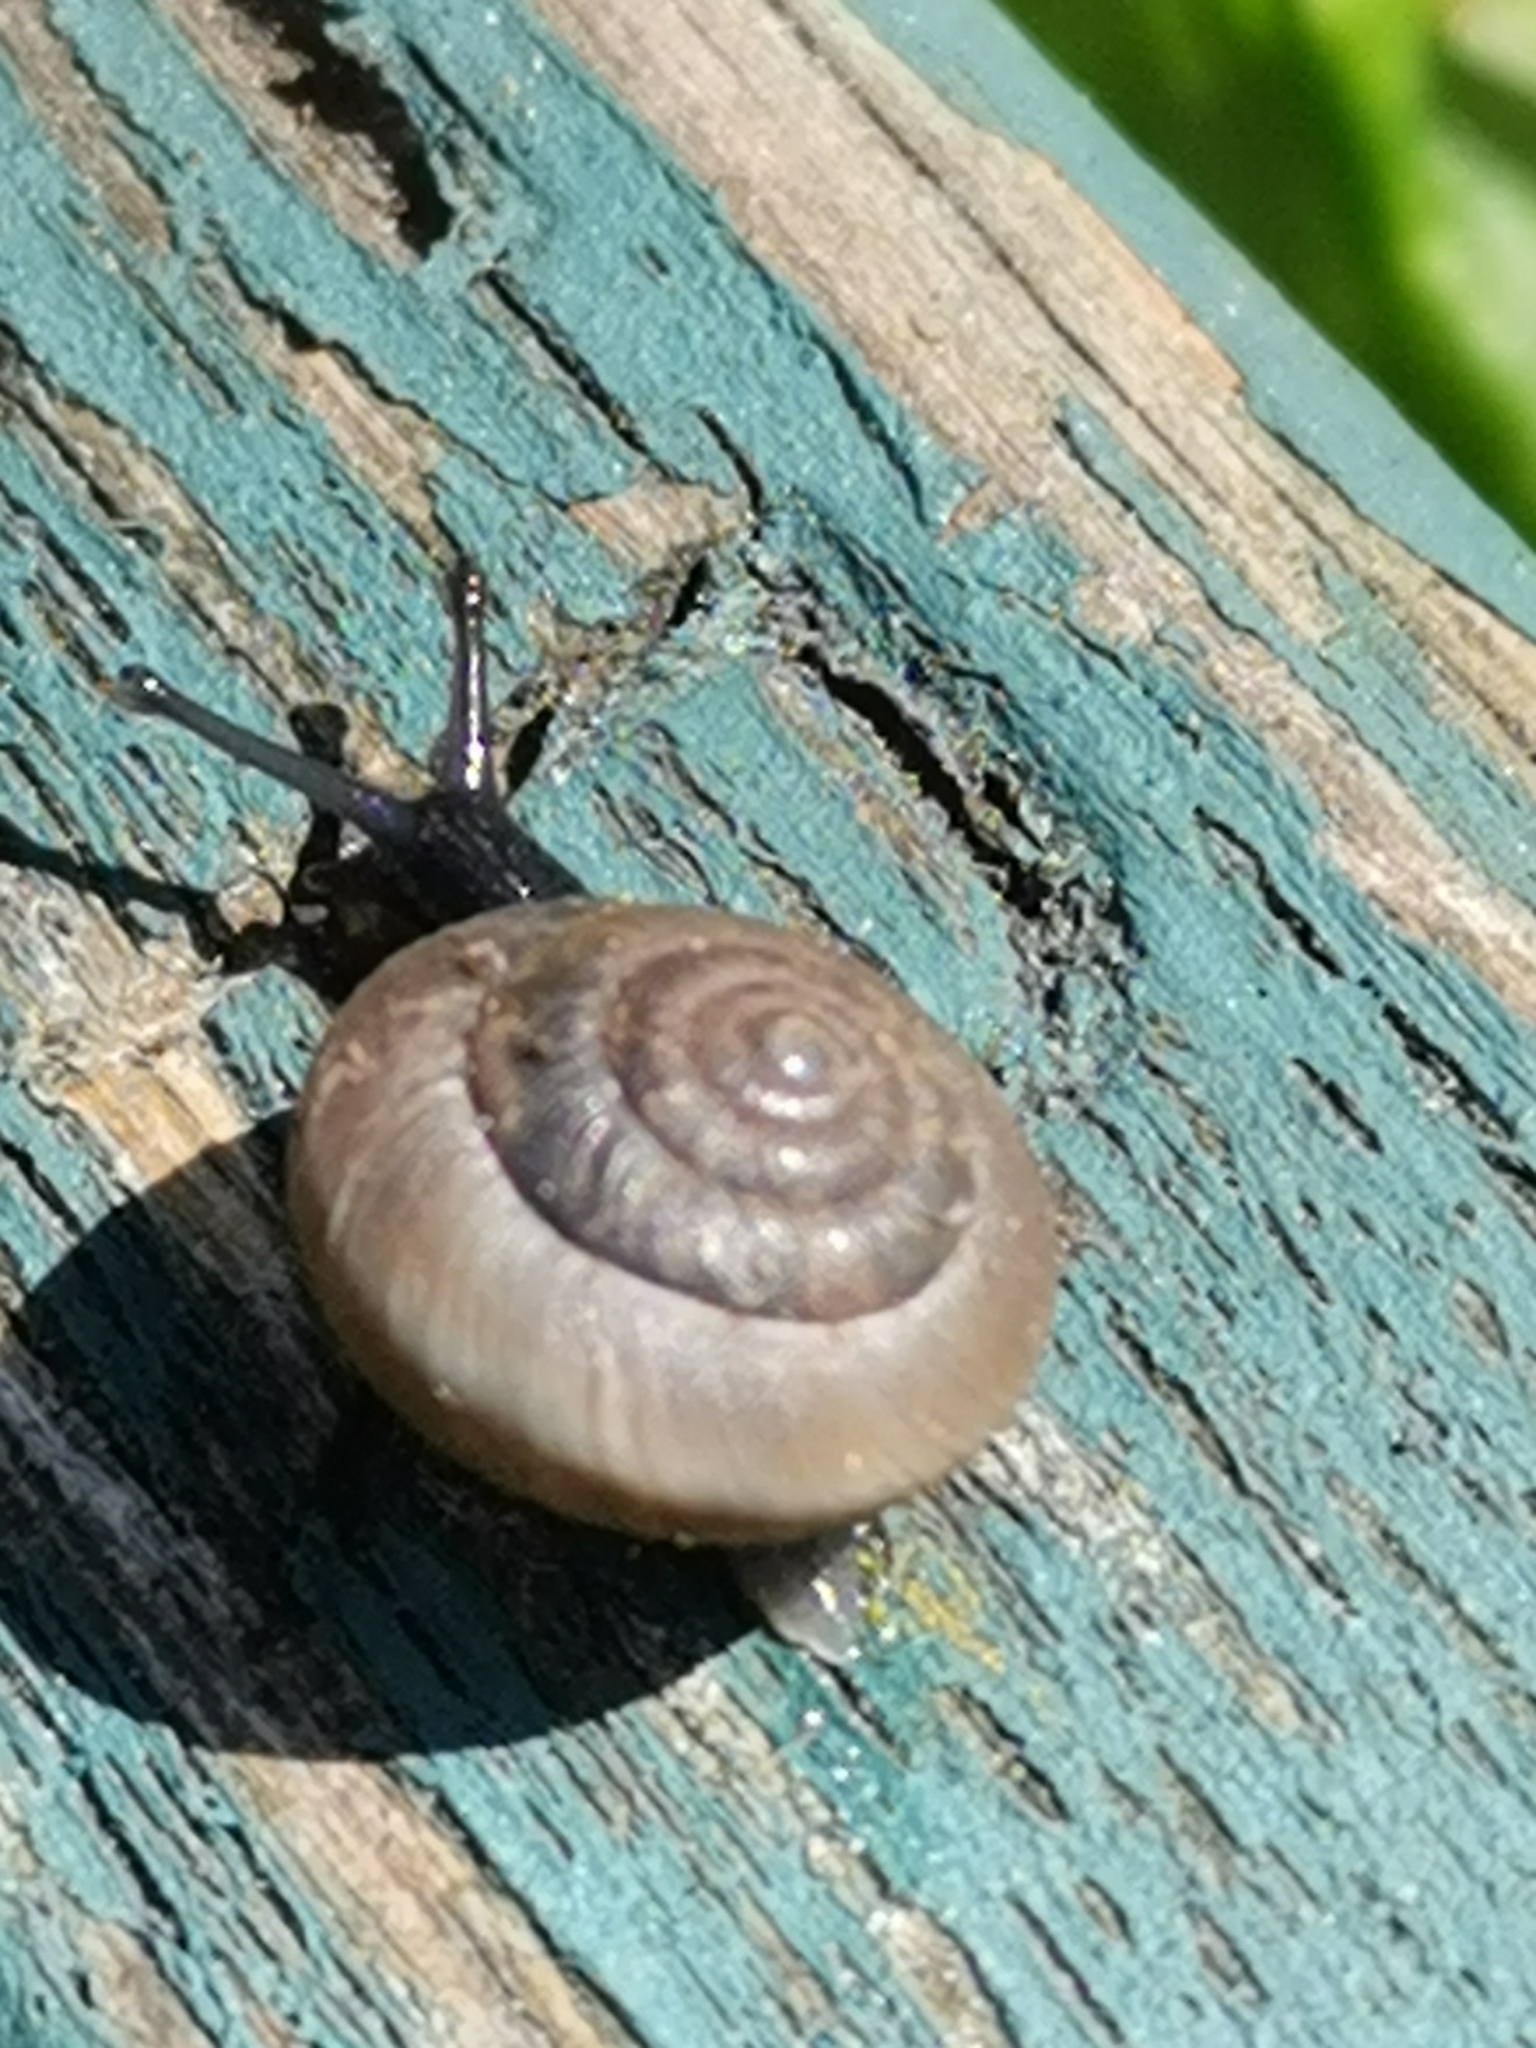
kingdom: Animalia
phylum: Mollusca
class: Gastropoda
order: Stylommatophora
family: Hygromiidae
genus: Trochulus
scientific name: Trochulus striolatus
